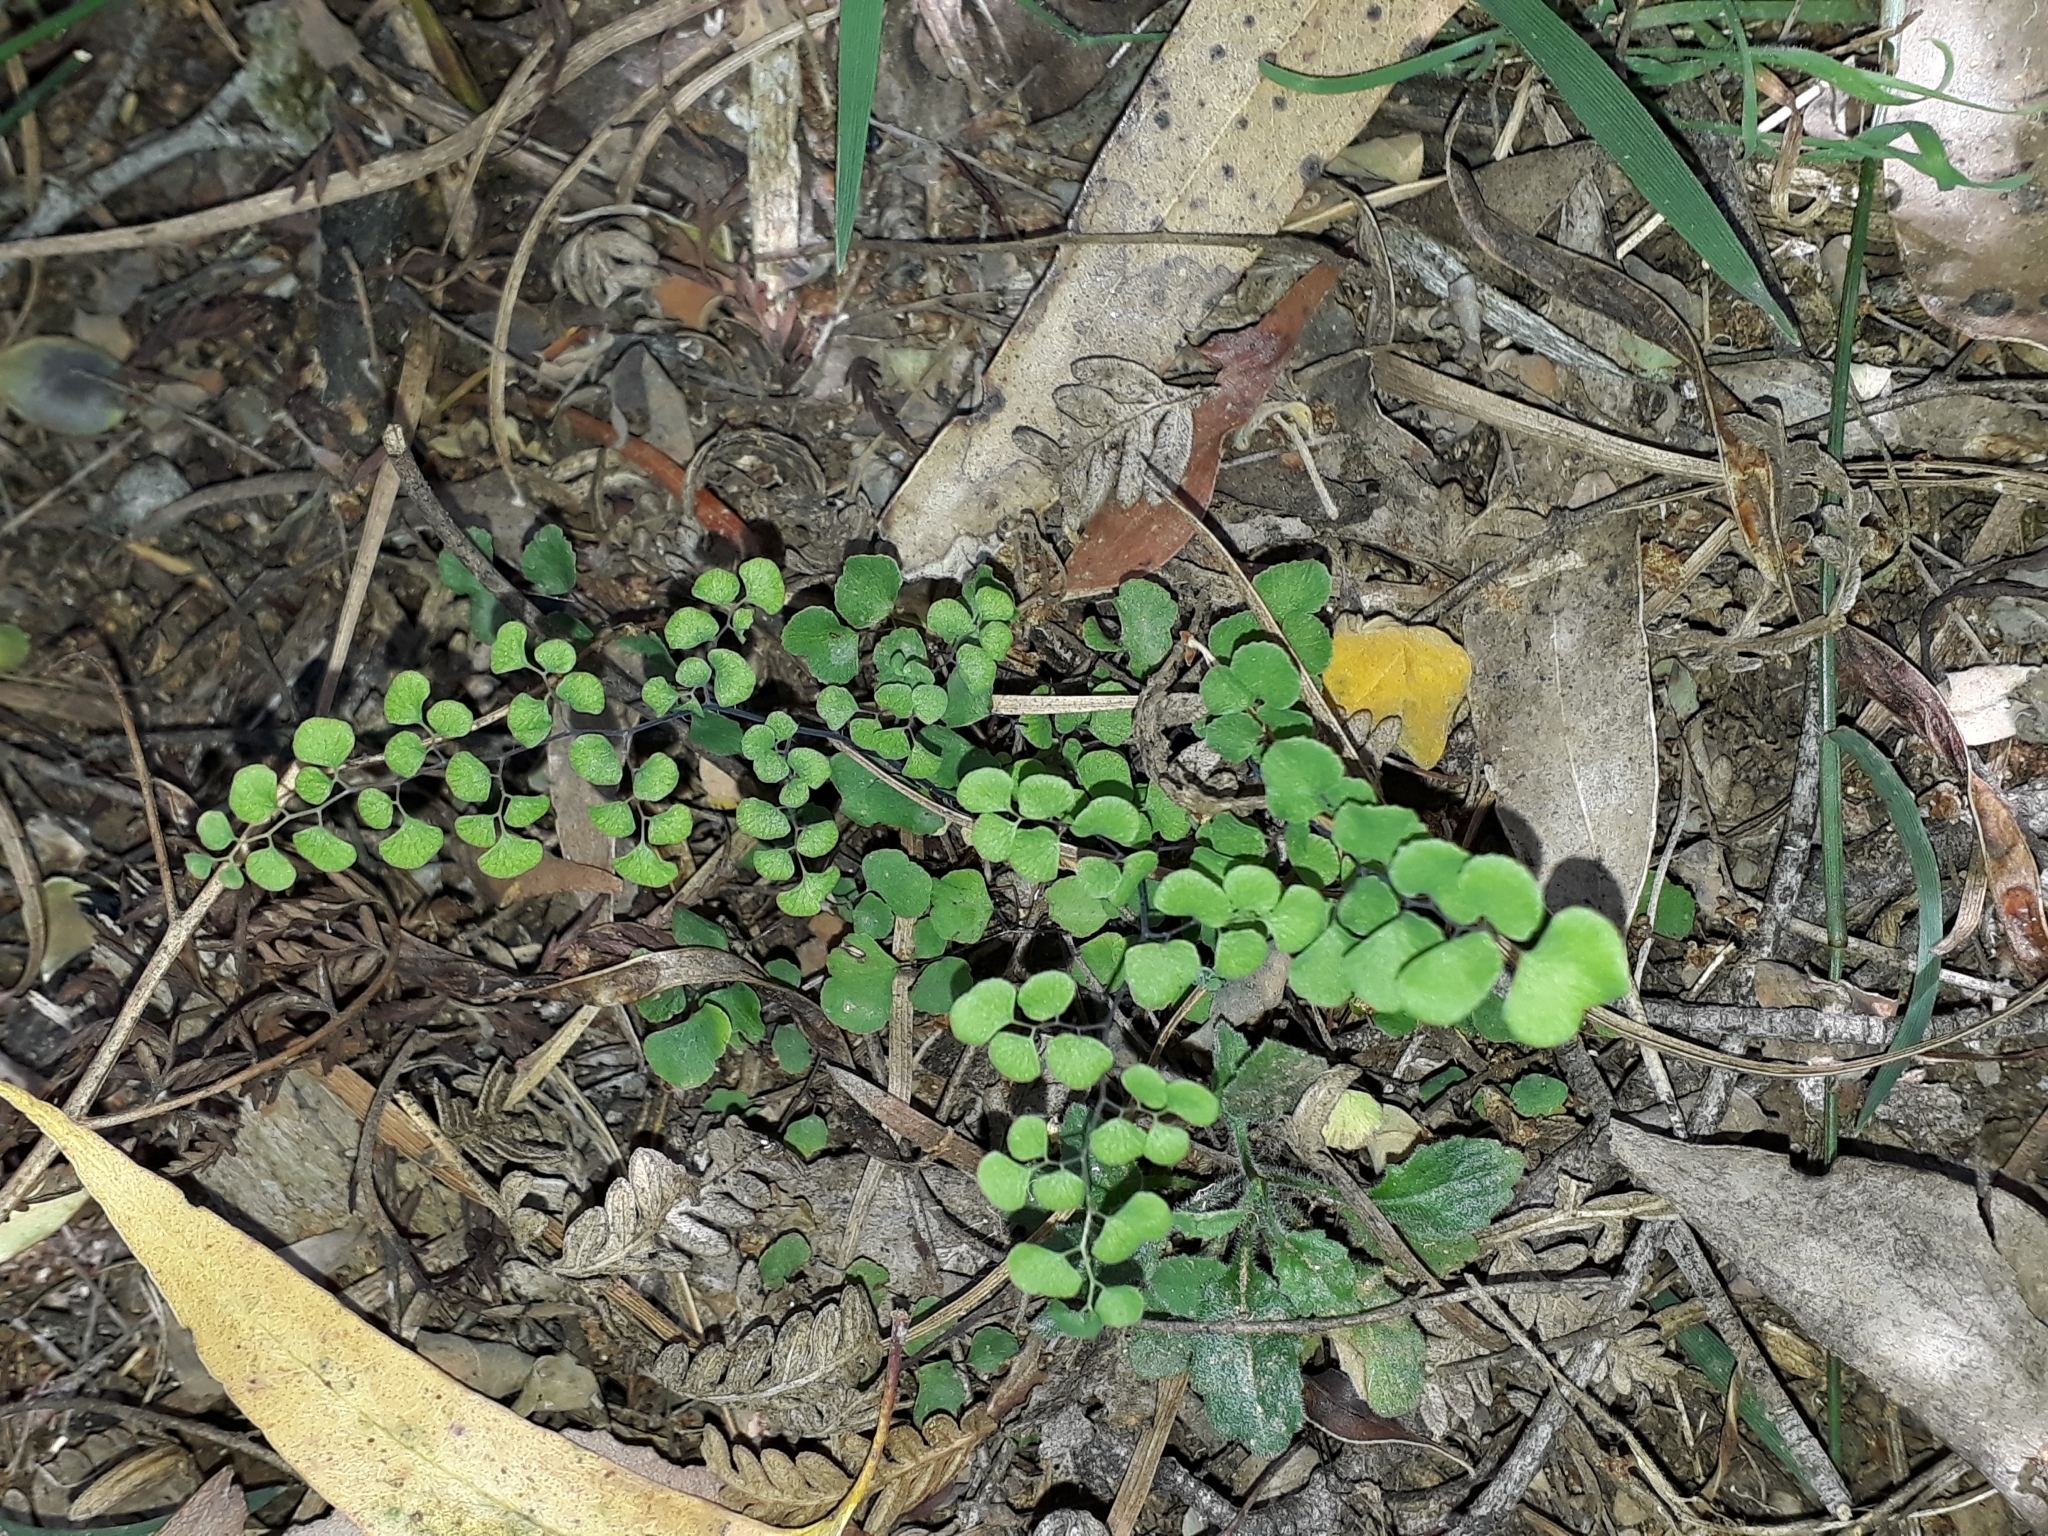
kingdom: Plantae
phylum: Tracheophyta
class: Polypodiopsida
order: Polypodiales
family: Pteridaceae
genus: Adiantum
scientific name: Adiantum aethiopicum
